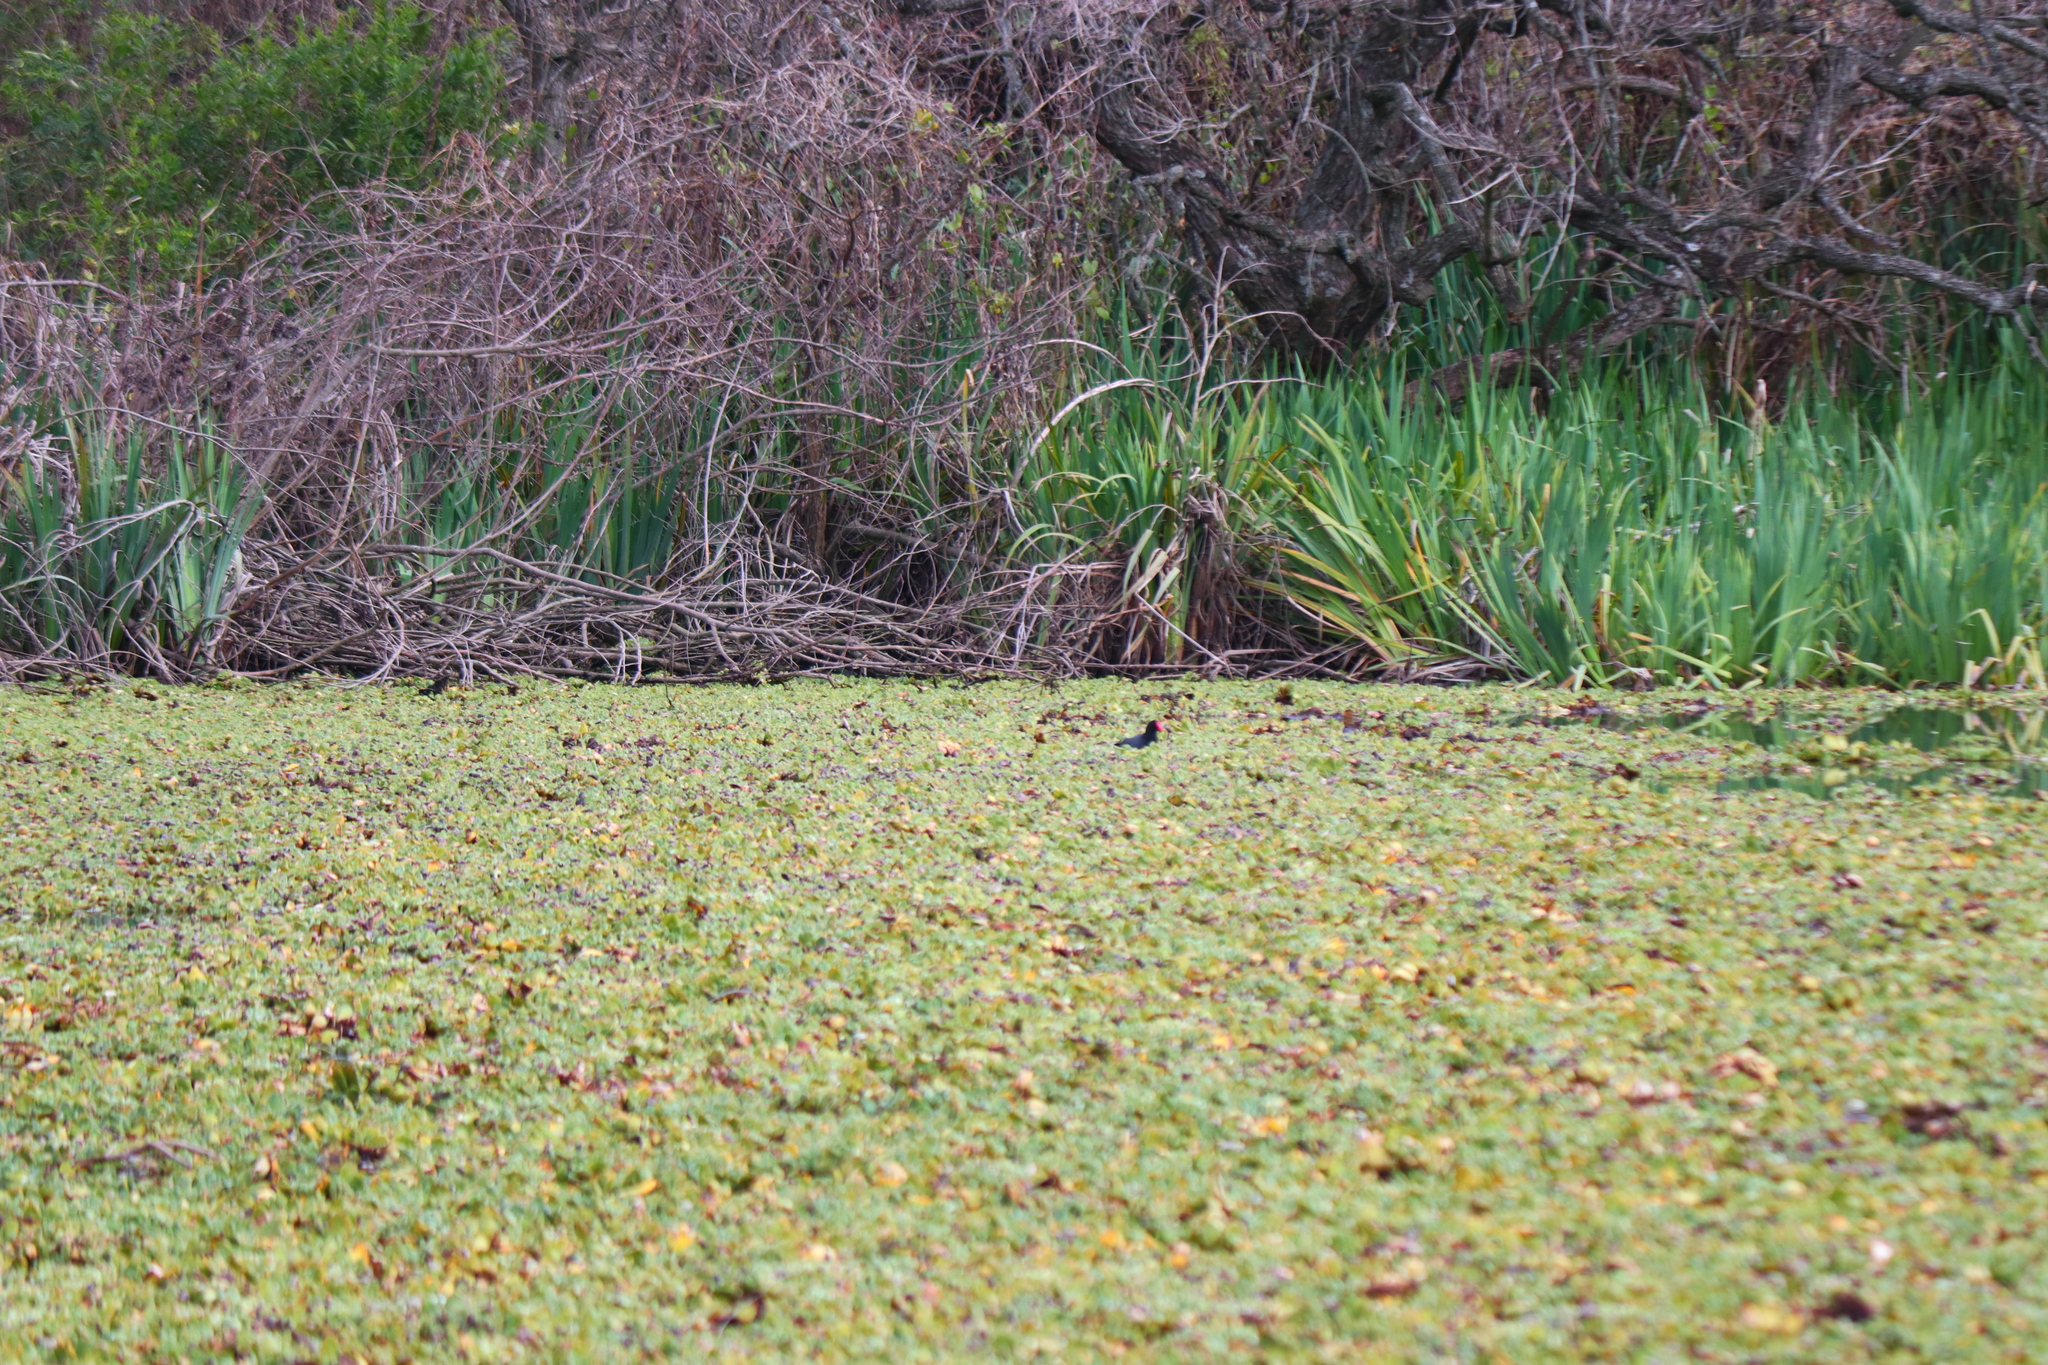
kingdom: Animalia
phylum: Chordata
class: Aves
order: Gruiformes
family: Rallidae
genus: Gallinula
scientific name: Gallinula chloropus
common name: Common moorhen
